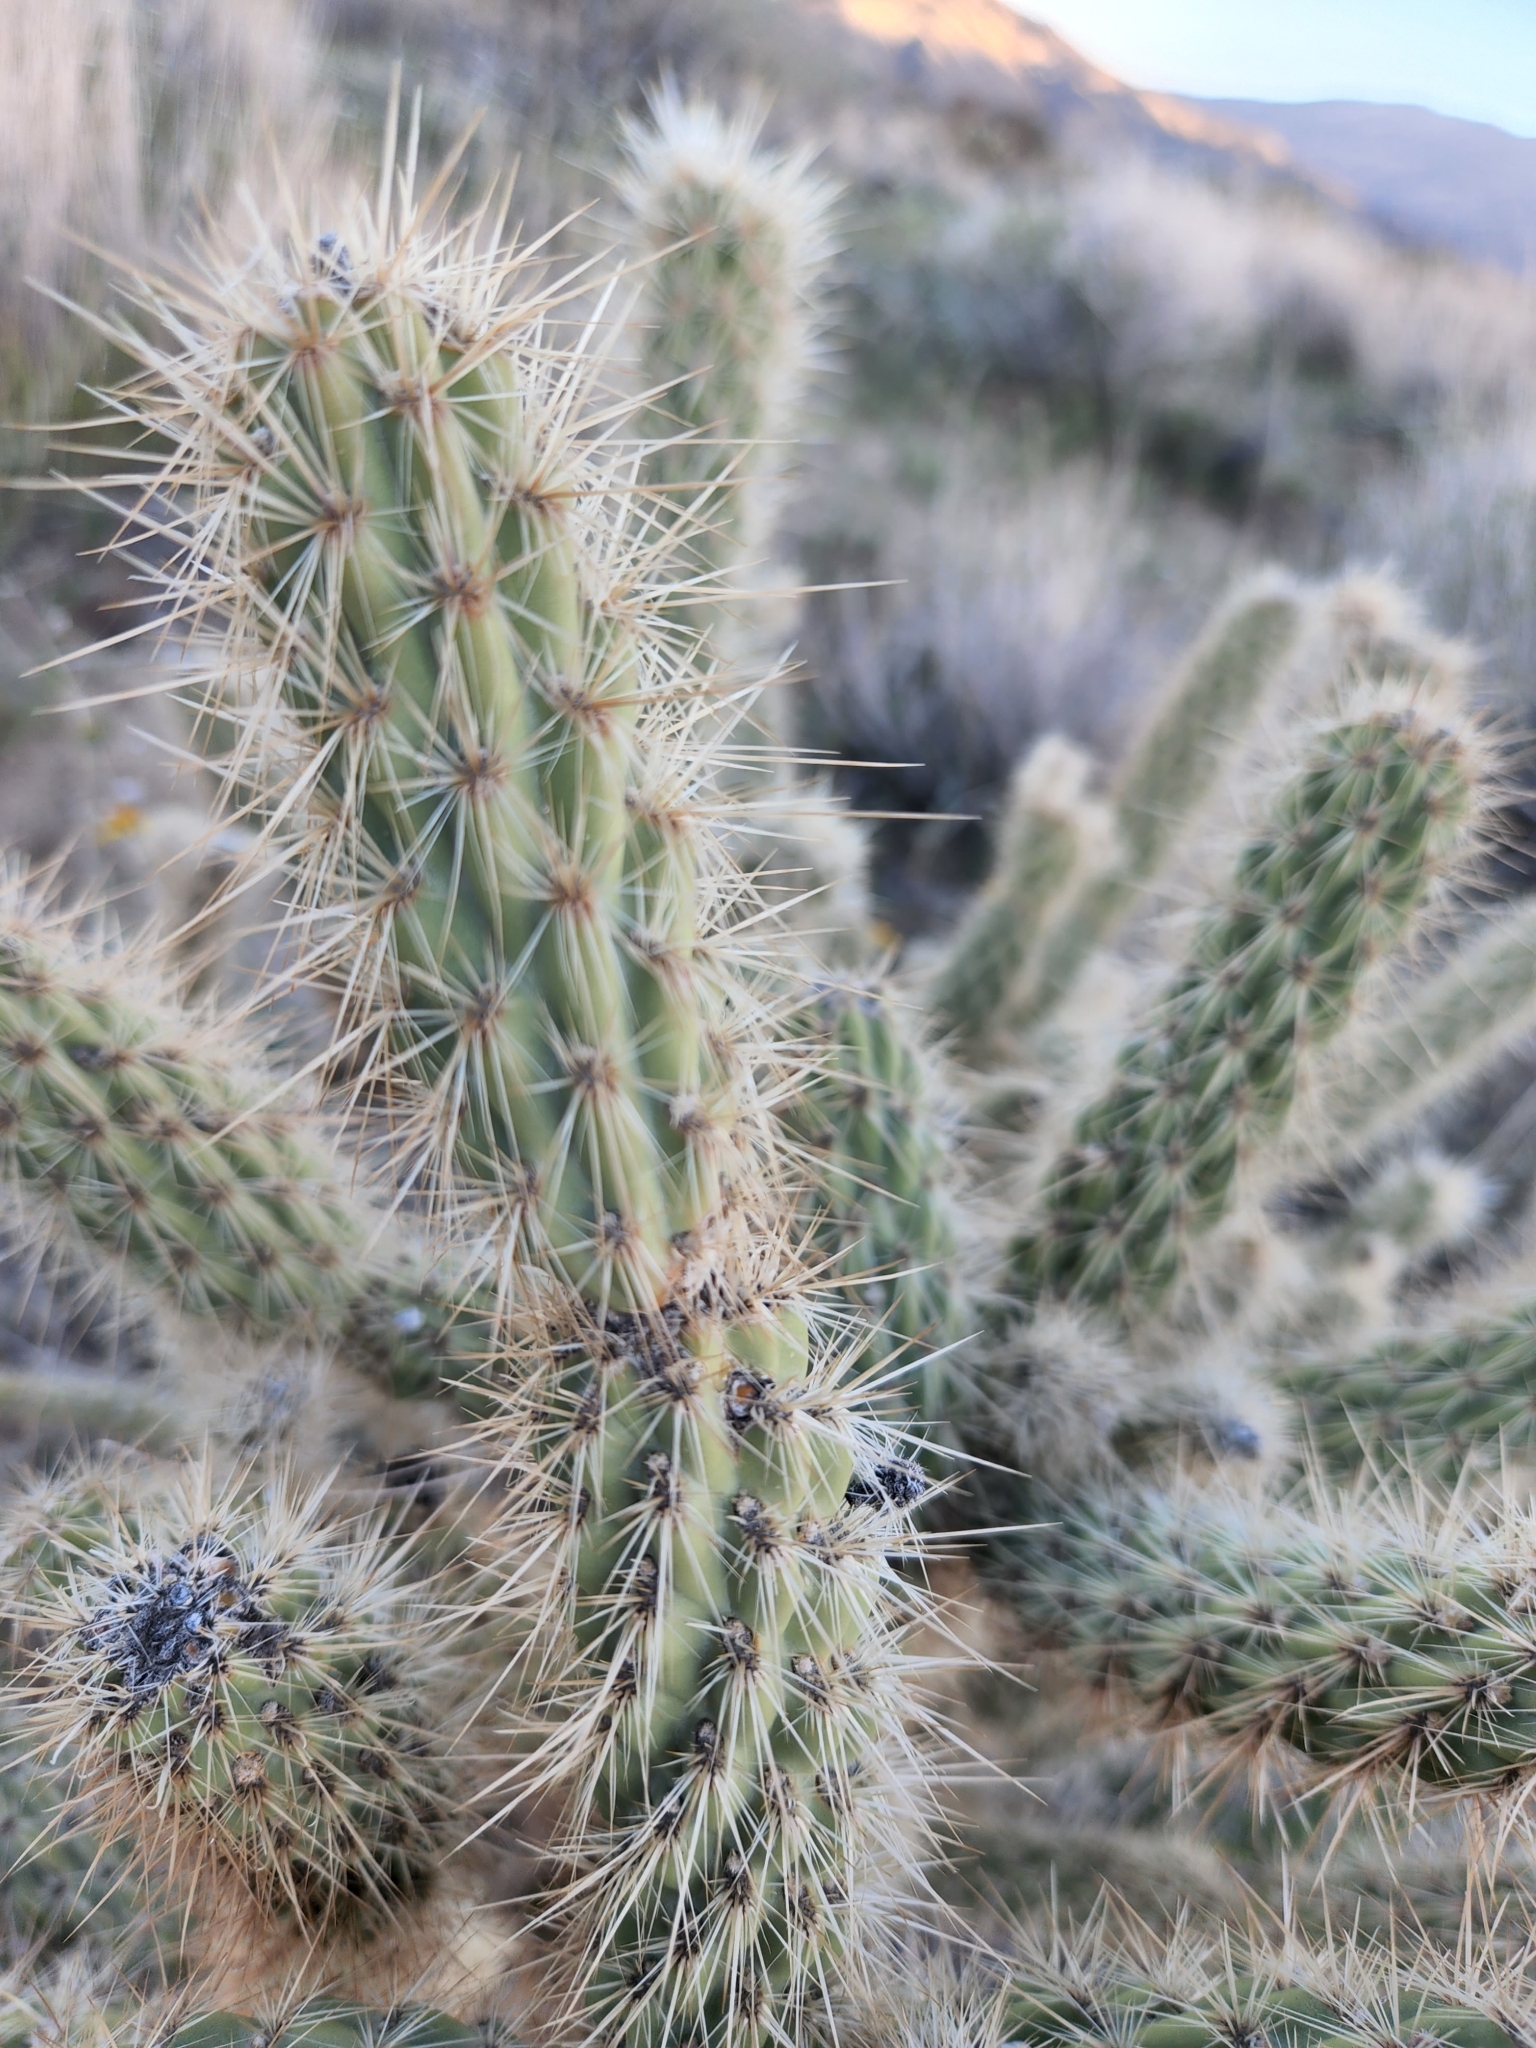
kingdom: Plantae
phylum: Tracheophyta
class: Magnoliopsida
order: Caryophyllales
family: Cactaceae
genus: Cylindropuntia
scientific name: Cylindropuntia ganderi
